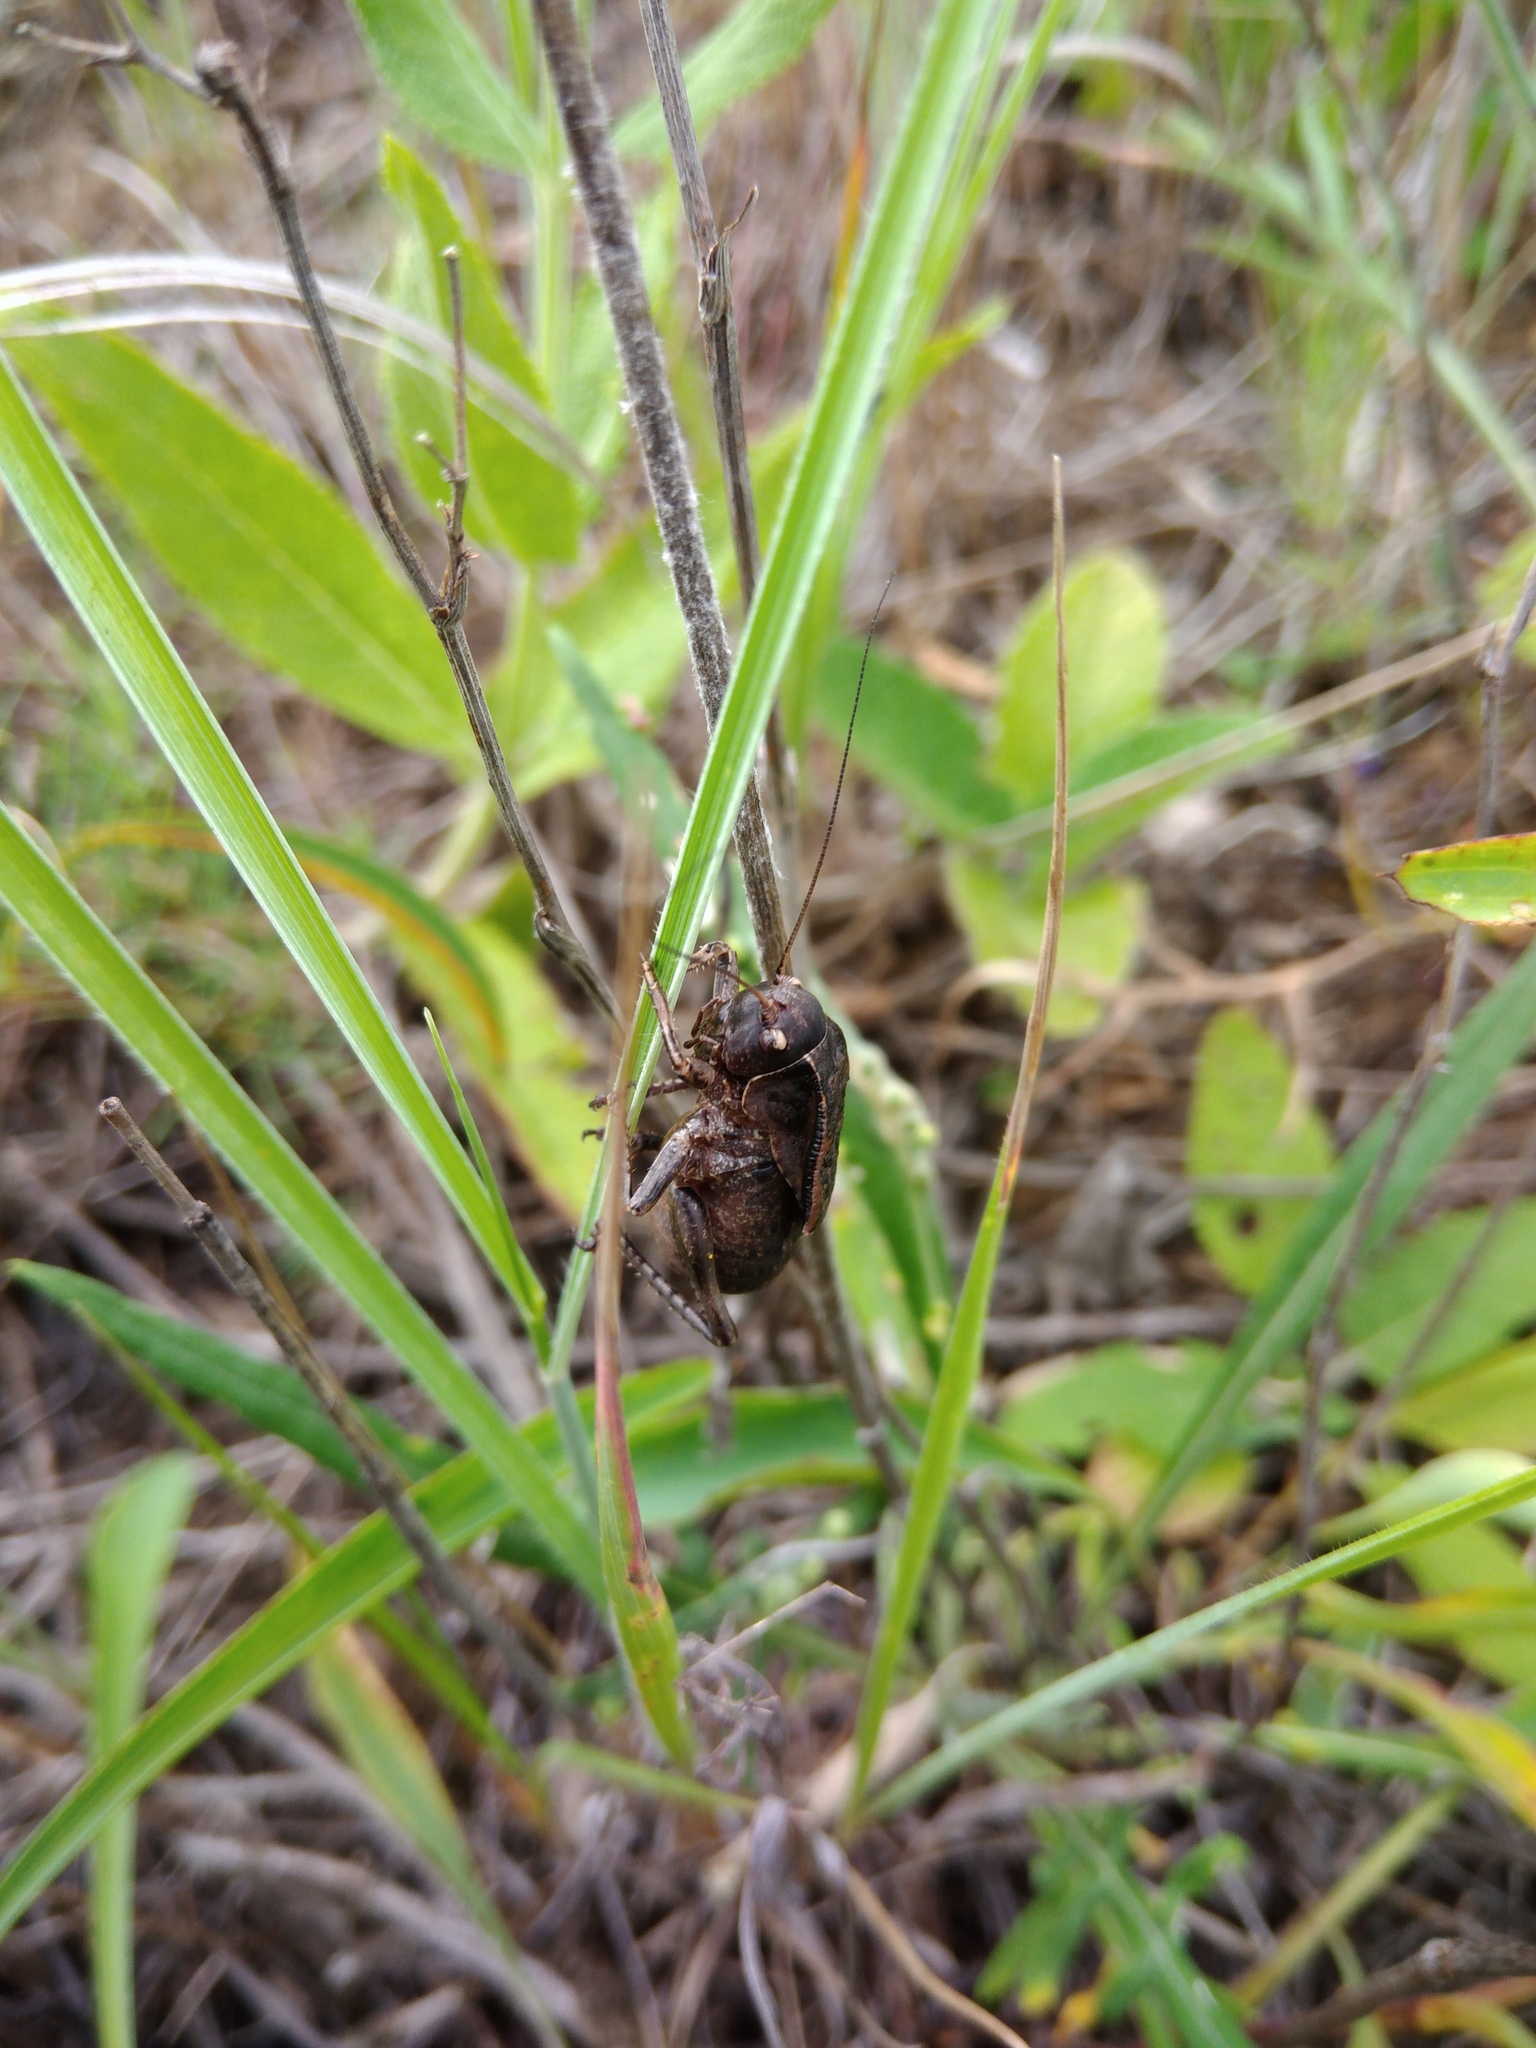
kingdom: Animalia
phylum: Arthropoda
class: Insecta
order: Orthoptera
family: Tettigoniidae
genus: Onconotus
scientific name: Onconotus servillei
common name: Southern barbed-wire bush-cricket
